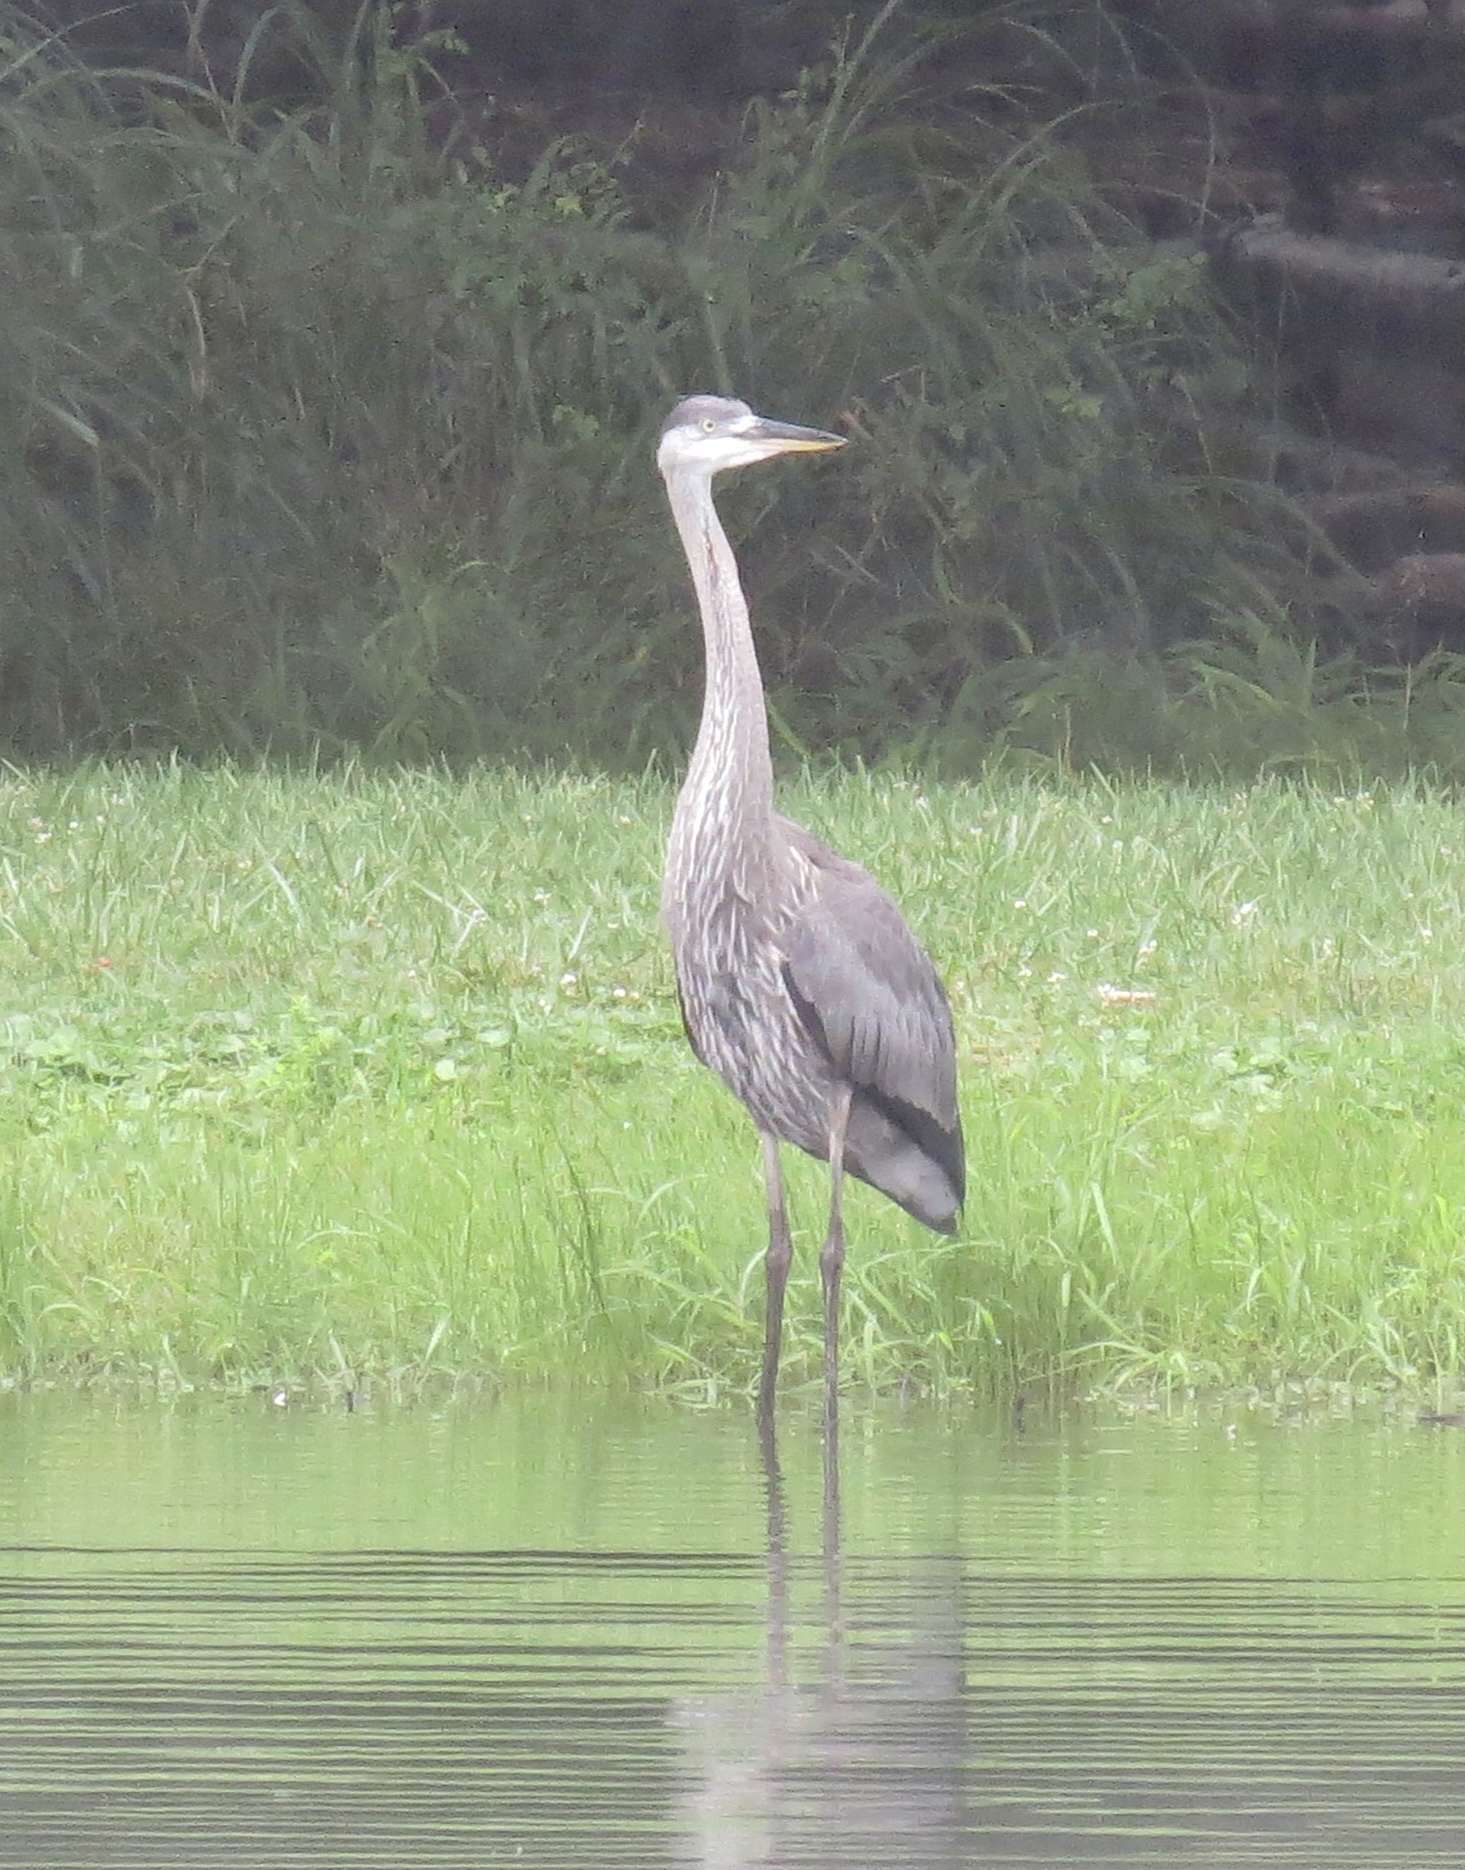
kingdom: Animalia
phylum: Chordata
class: Aves
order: Pelecaniformes
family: Ardeidae
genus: Ardea
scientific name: Ardea herodias
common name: Great blue heron
